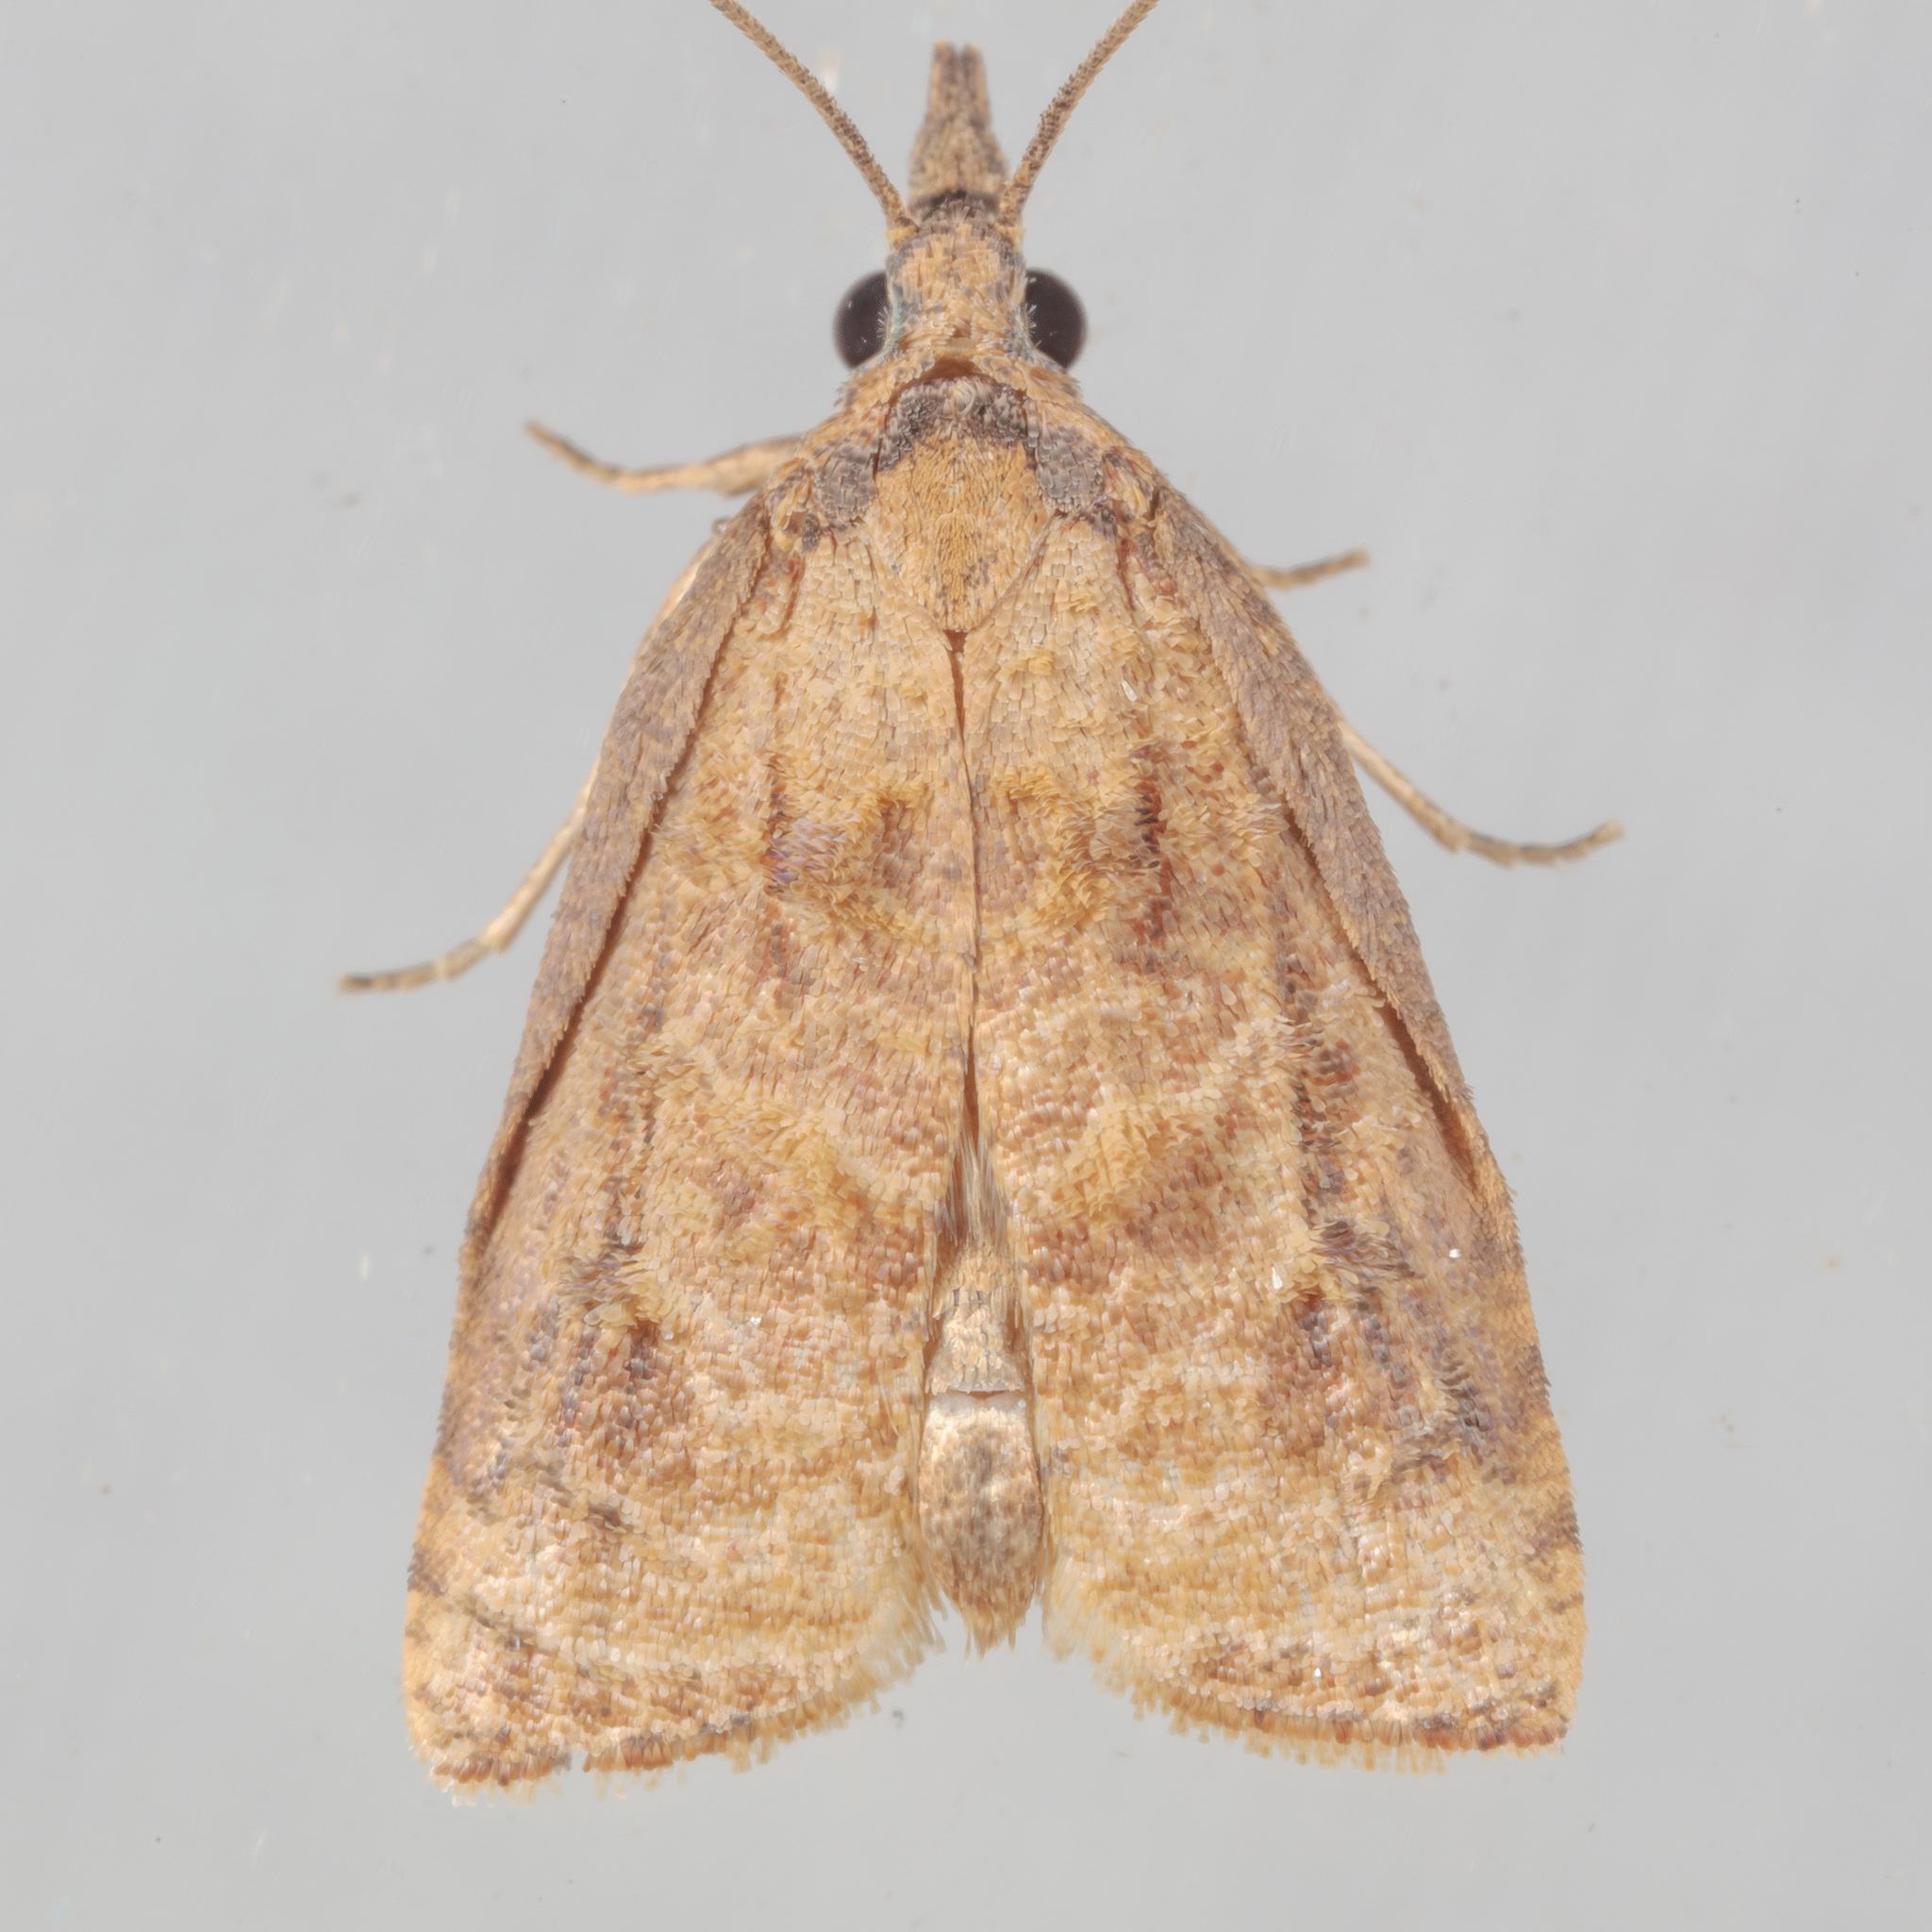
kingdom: Animalia
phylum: Arthropoda
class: Insecta
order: Lepidoptera
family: Tortricidae
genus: Platynota
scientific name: Platynota rostrana
